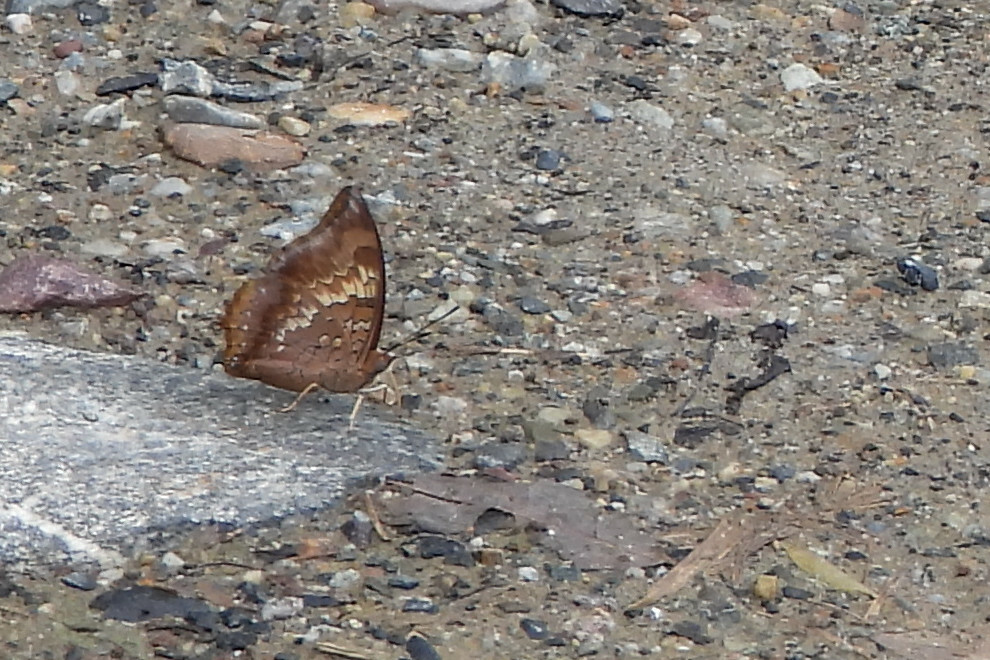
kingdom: Animalia
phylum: Arthropoda
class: Insecta
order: Lepidoptera
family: Nymphalidae
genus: Charaxes
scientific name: Charaxes bernardus
